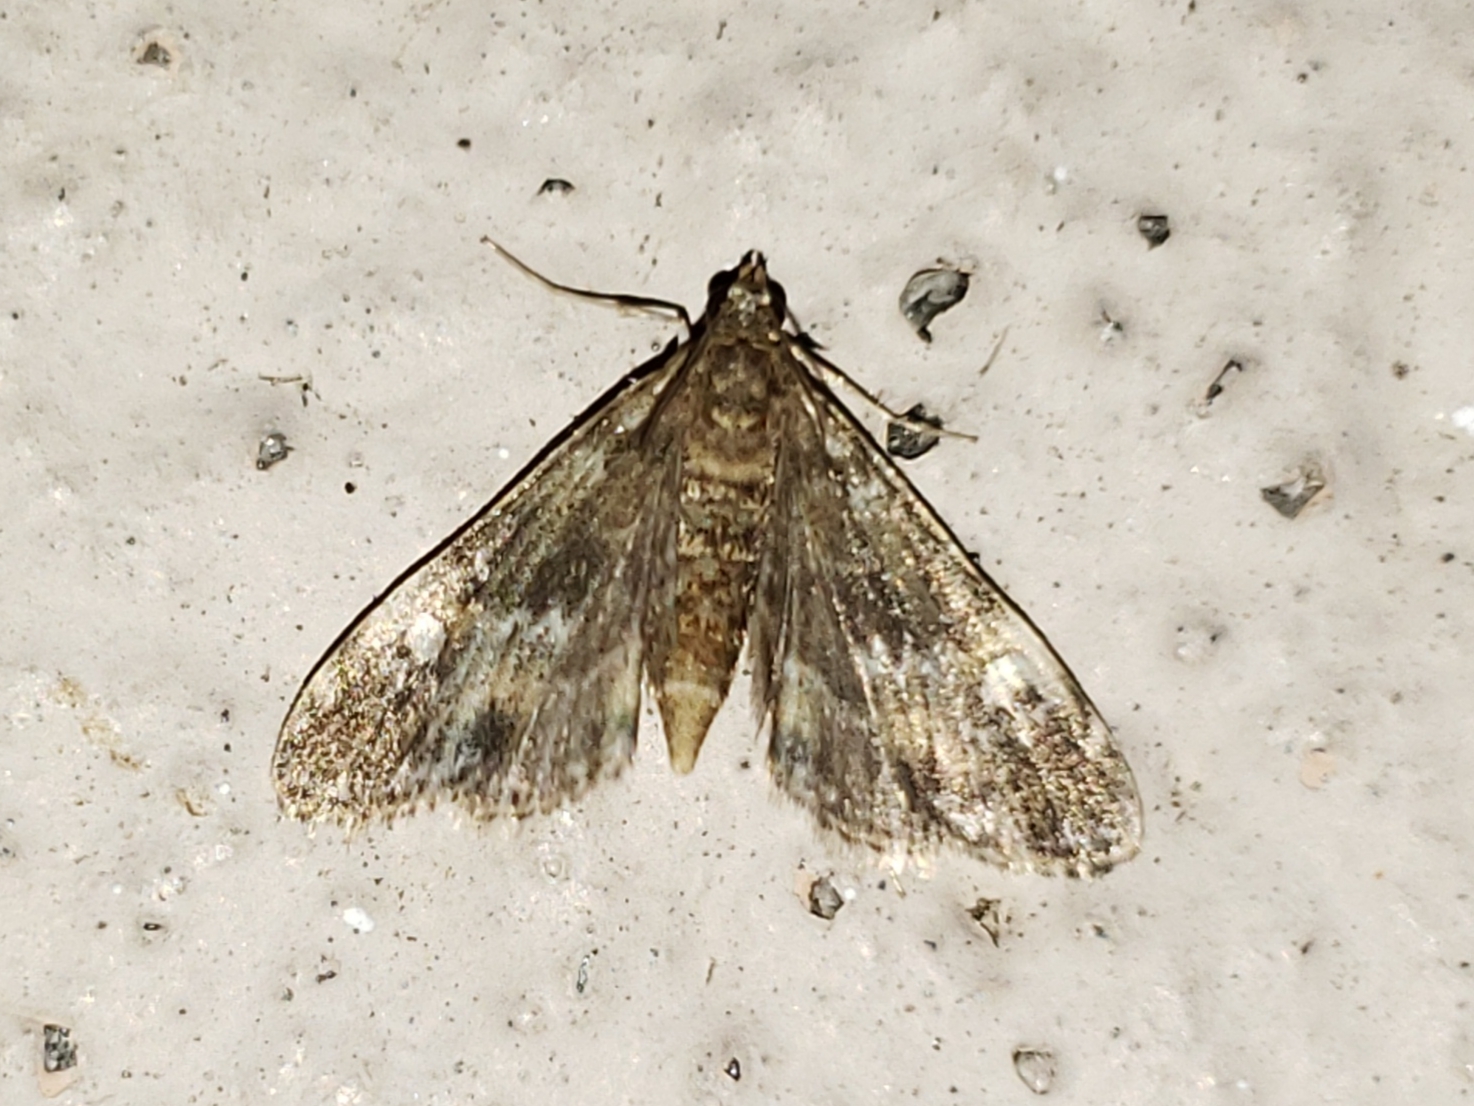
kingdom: Animalia
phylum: Arthropoda
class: Insecta
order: Lepidoptera
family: Crambidae
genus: Elophila
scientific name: Elophila obliteralis
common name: Waterlily leafcutter moth
